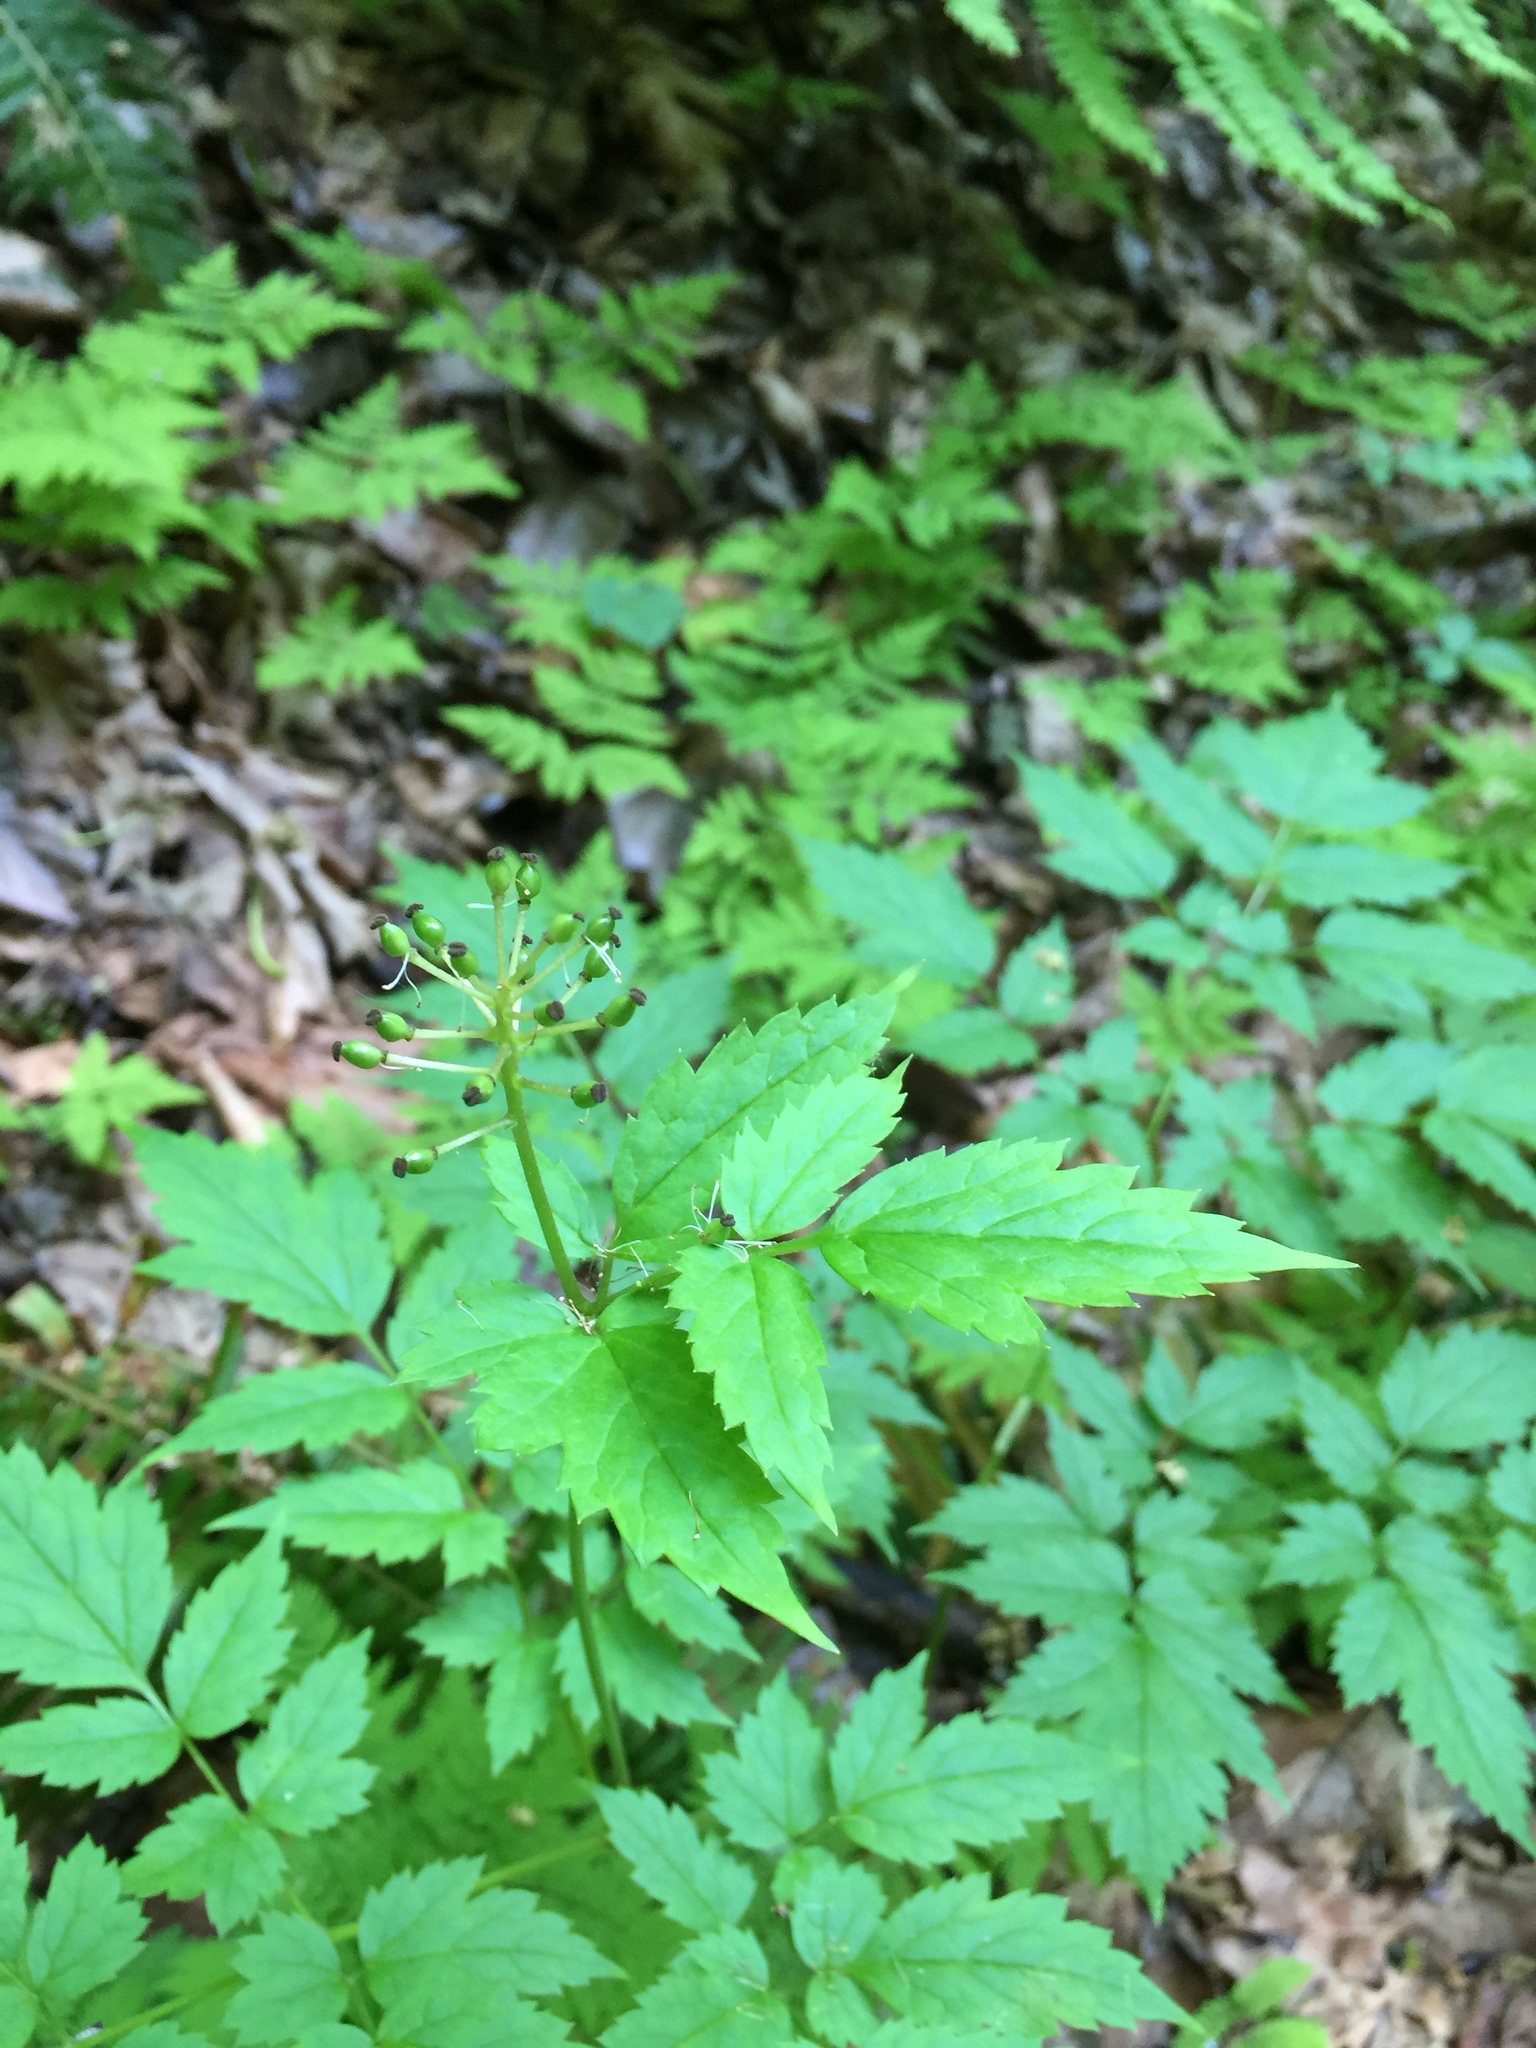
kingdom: Plantae
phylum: Tracheophyta
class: Magnoliopsida
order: Ranunculales
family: Ranunculaceae
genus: Actaea
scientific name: Actaea rubra
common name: Red baneberry
